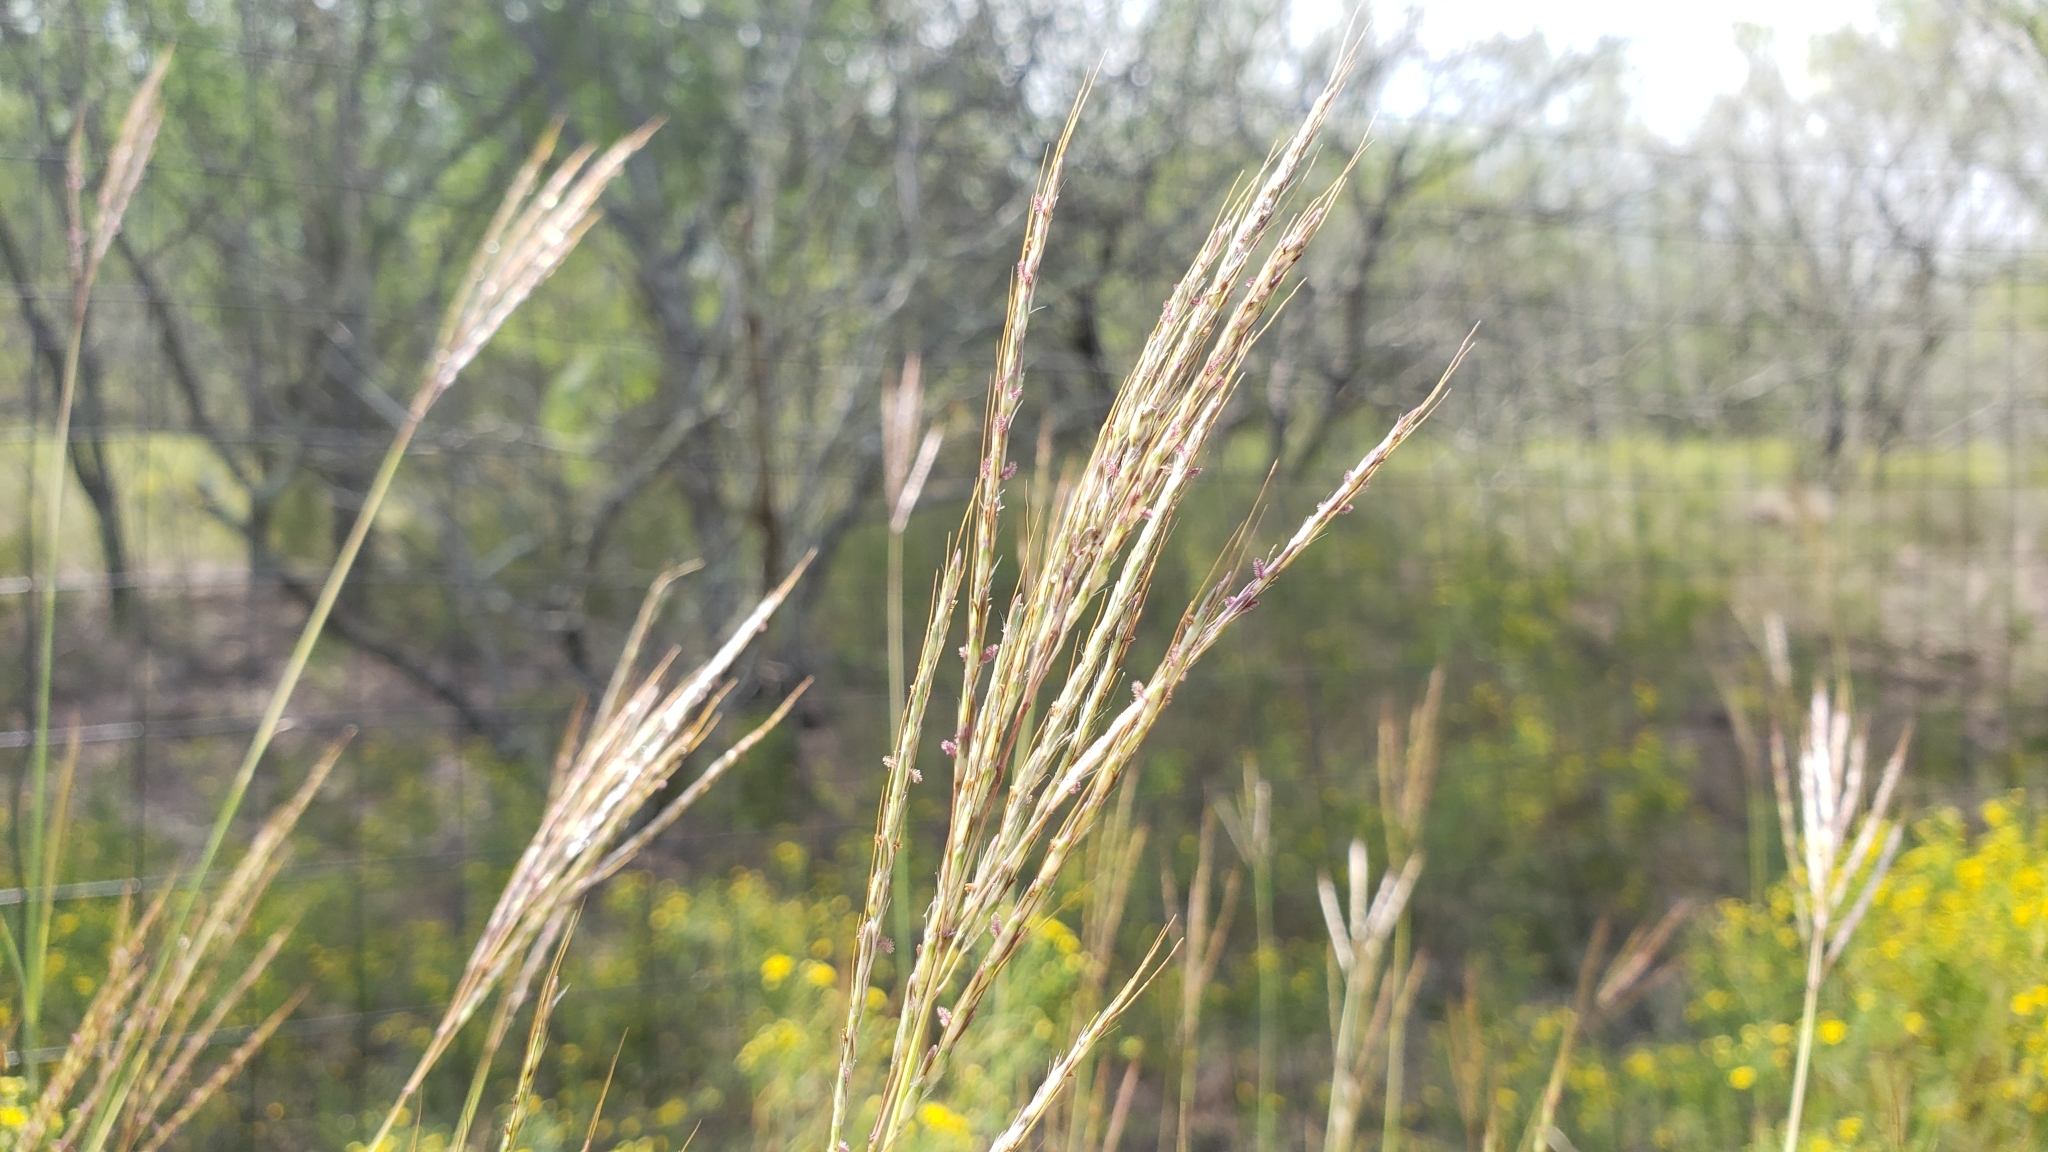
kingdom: Plantae
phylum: Tracheophyta
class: Liliopsida
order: Poales
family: Poaceae
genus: Bothriochloa
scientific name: Bothriochloa ischaemum
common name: Yellow bluestem
